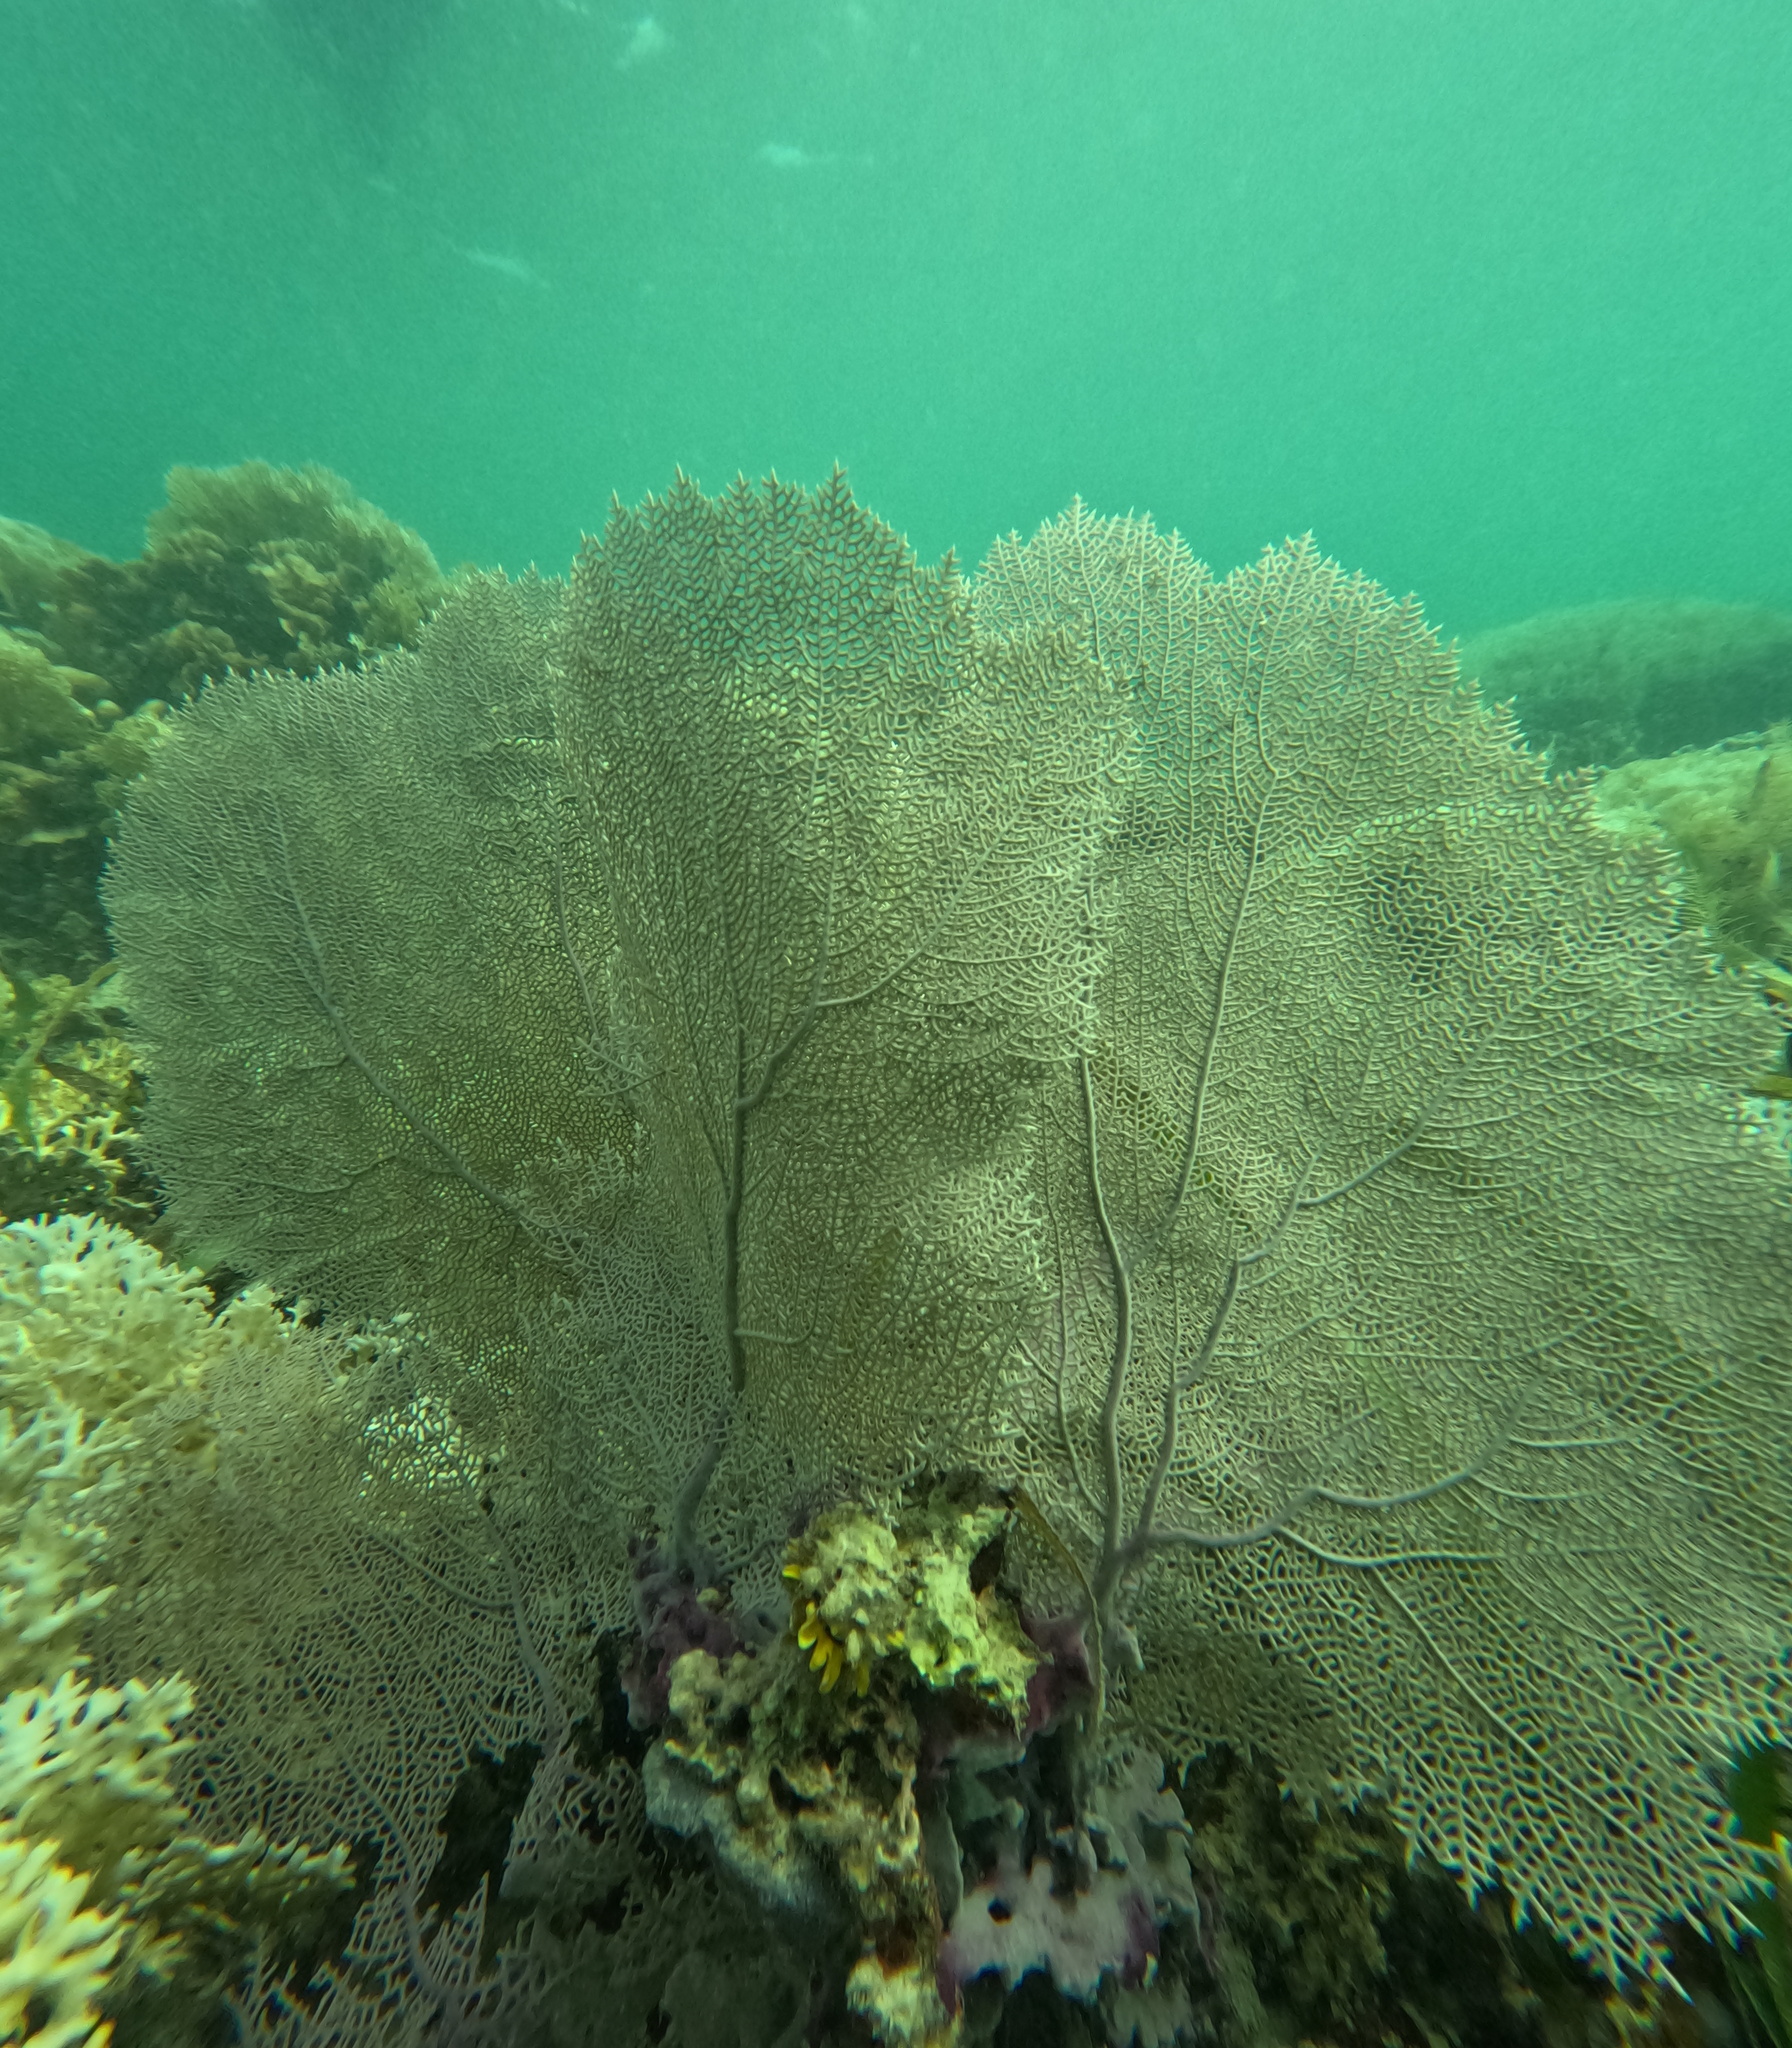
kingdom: Animalia
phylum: Cnidaria
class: Anthozoa
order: Malacalcyonacea
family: Gorgoniidae
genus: Gorgonia
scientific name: Gorgonia ventalina
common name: Common sea fan
